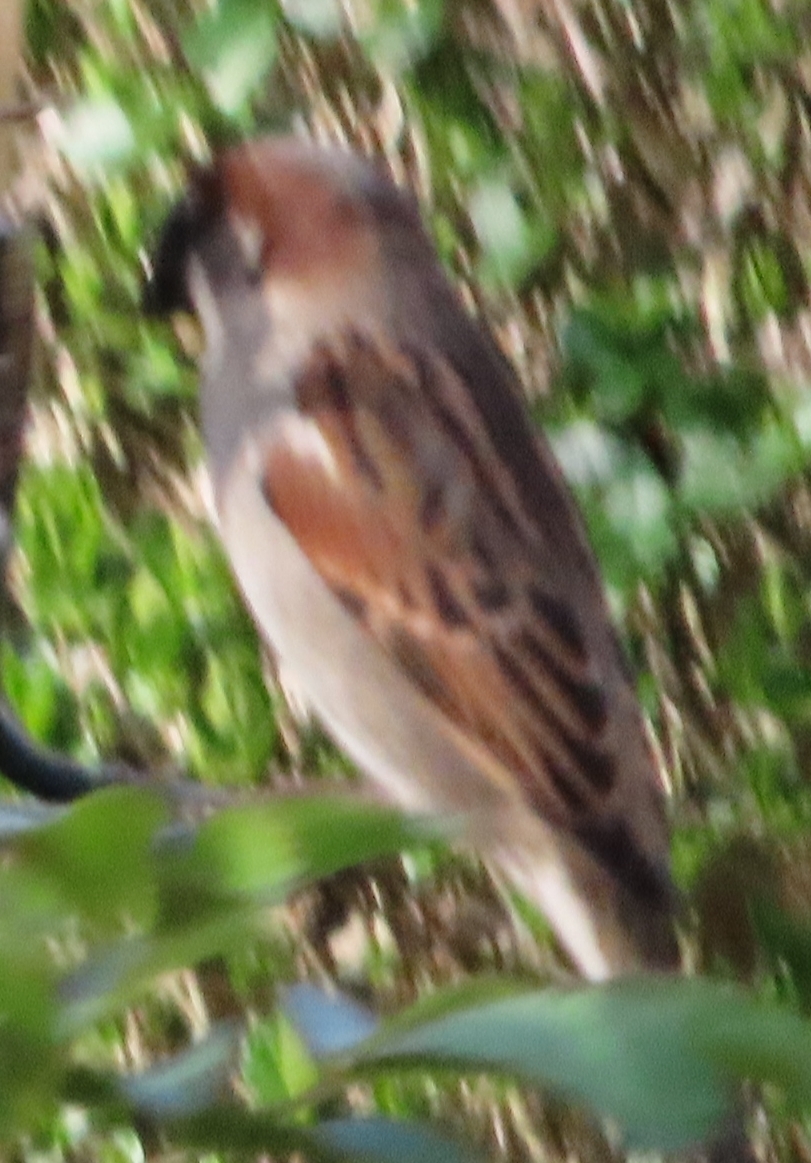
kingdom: Animalia
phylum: Chordata
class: Aves
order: Passeriformes
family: Passeridae
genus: Passer
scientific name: Passer domesticus
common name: House sparrow
